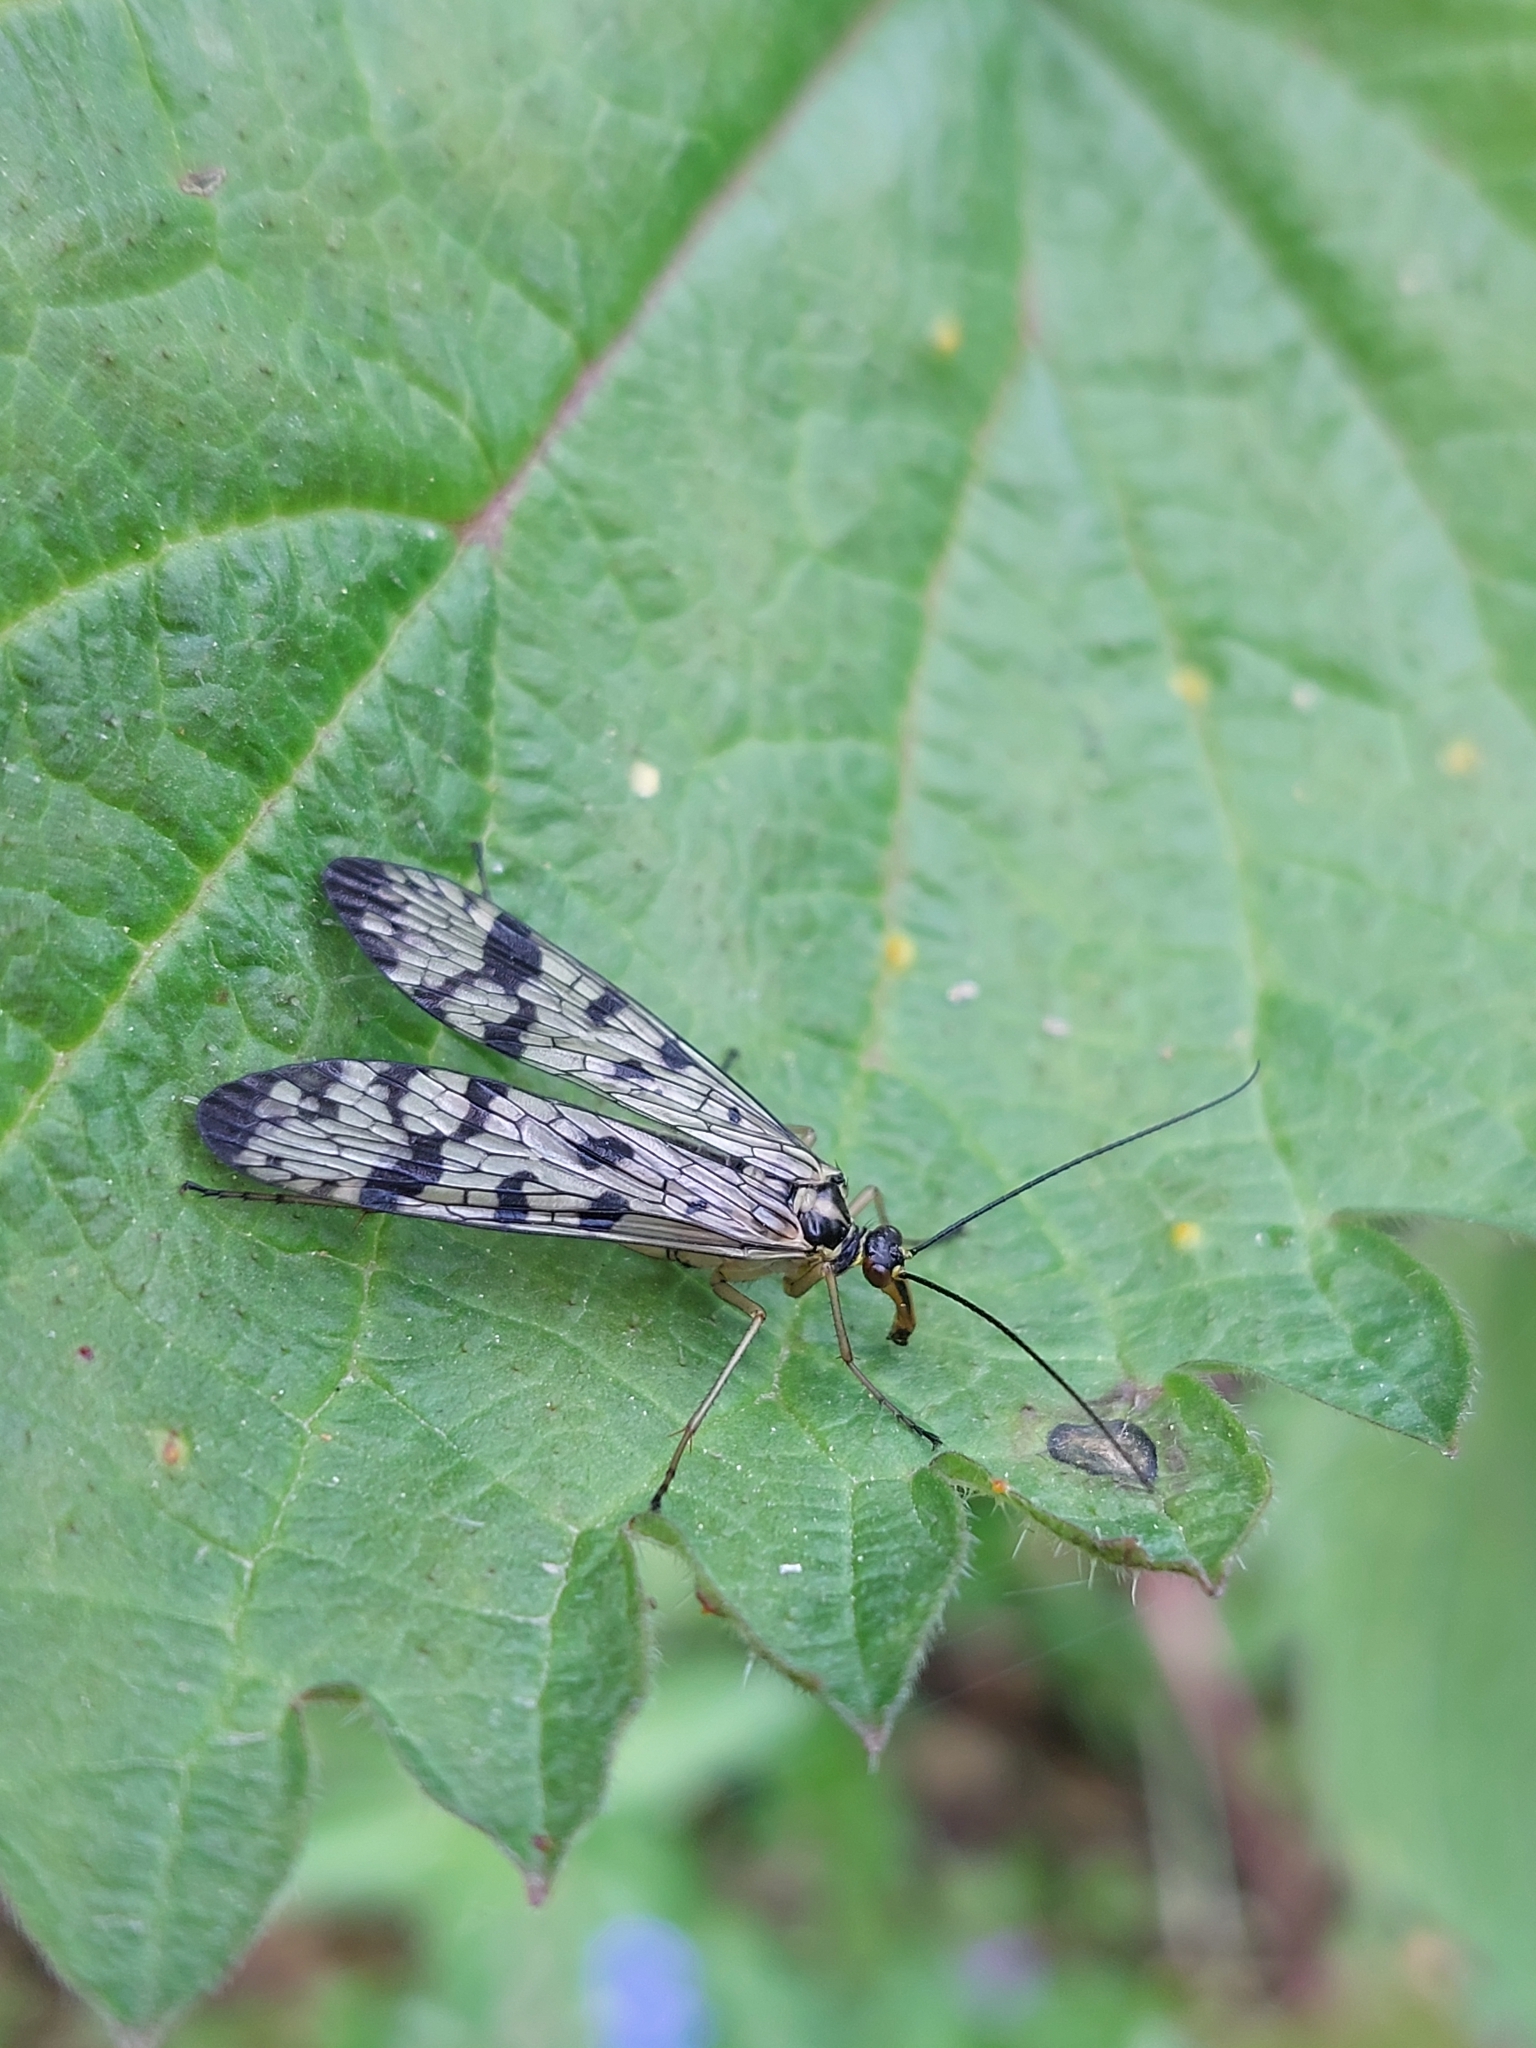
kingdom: Animalia
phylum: Arthropoda
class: Insecta
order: Mecoptera
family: Panorpidae
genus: Panorpa
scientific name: Panorpa communis
